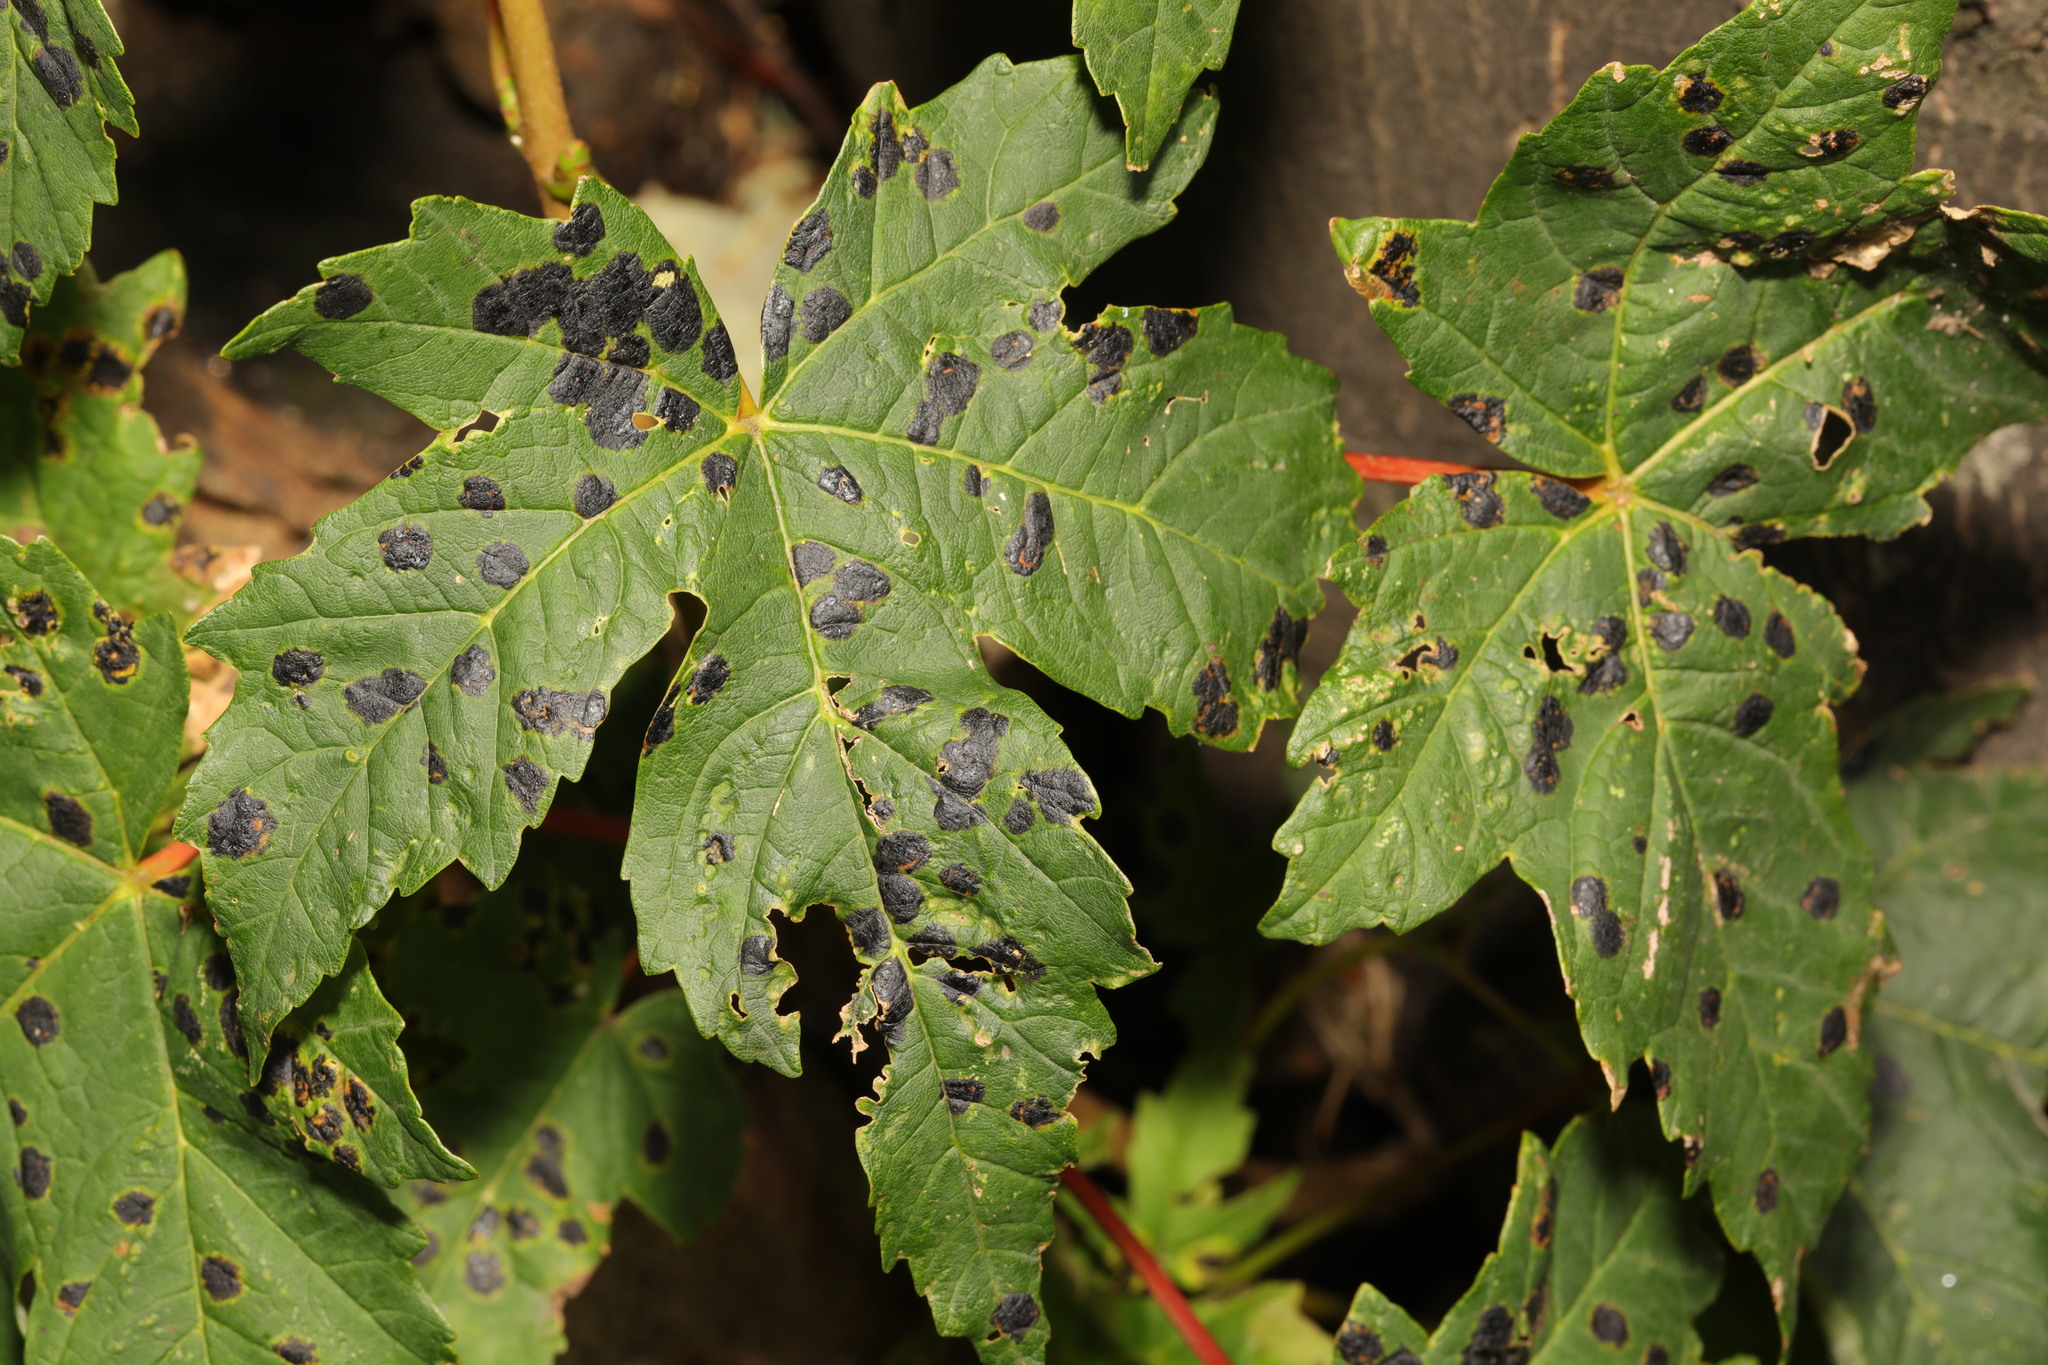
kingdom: Fungi
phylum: Ascomycota
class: Leotiomycetes
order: Rhytismatales
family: Rhytismataceae
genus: Rhytisma
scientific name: Rhytisma acerinum
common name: European tar spot
